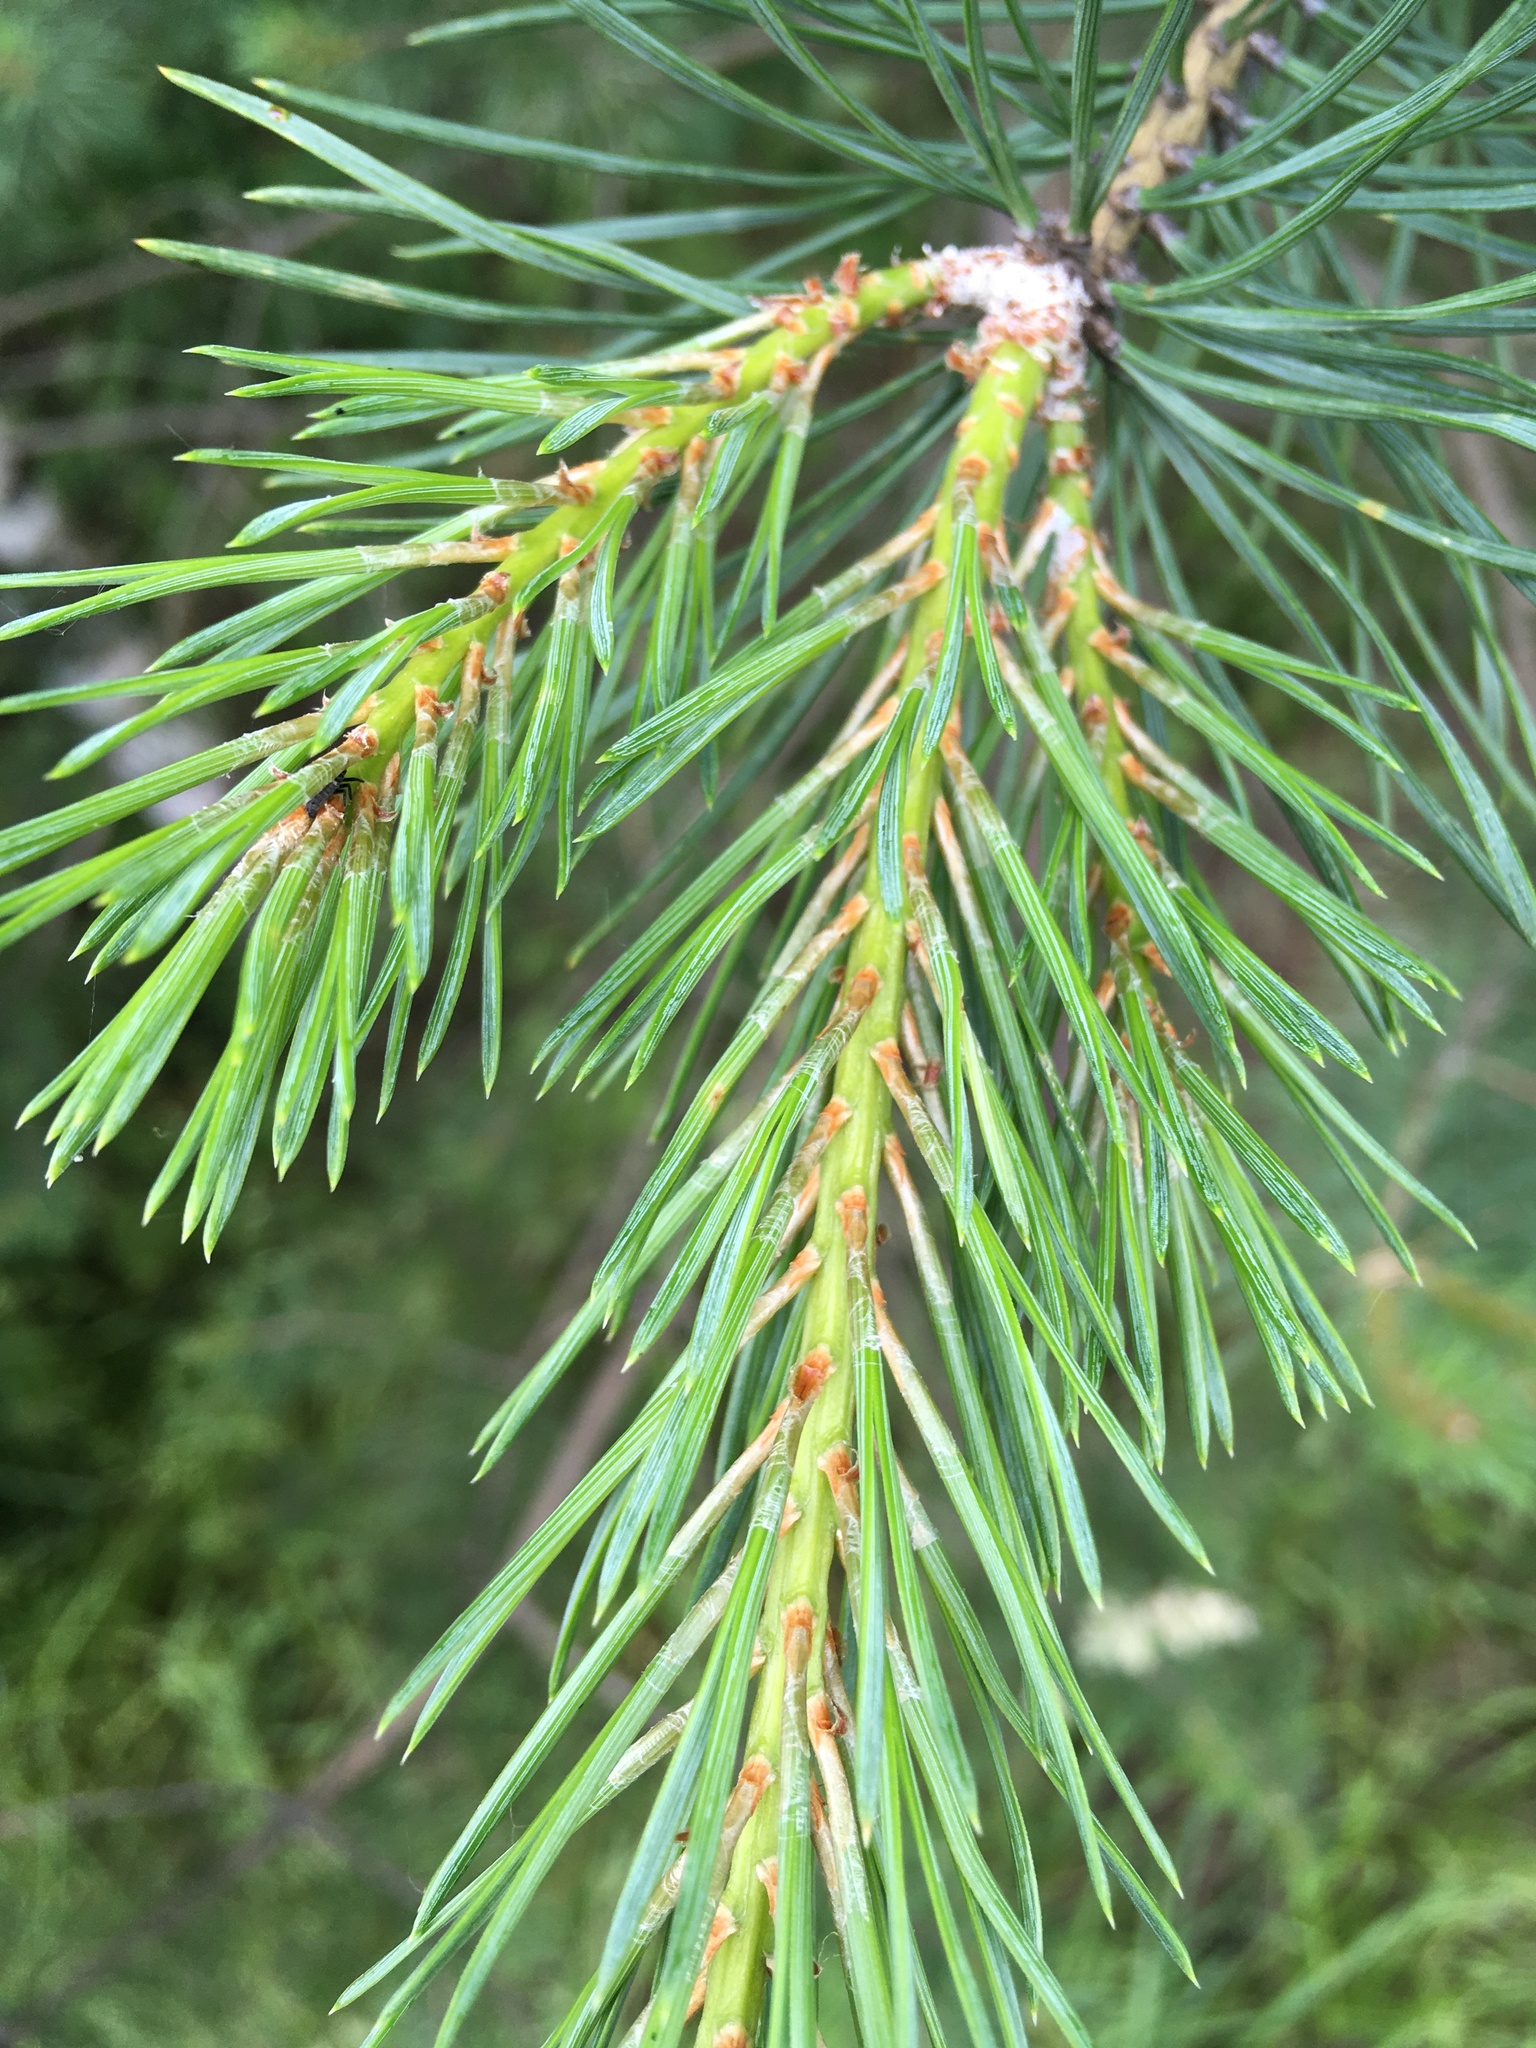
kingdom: Plantae
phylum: Tracheophyta
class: Pinopsida
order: Pinales
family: Pinaceae
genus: Pinus
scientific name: Pinus sylvestris
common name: Scots pine
